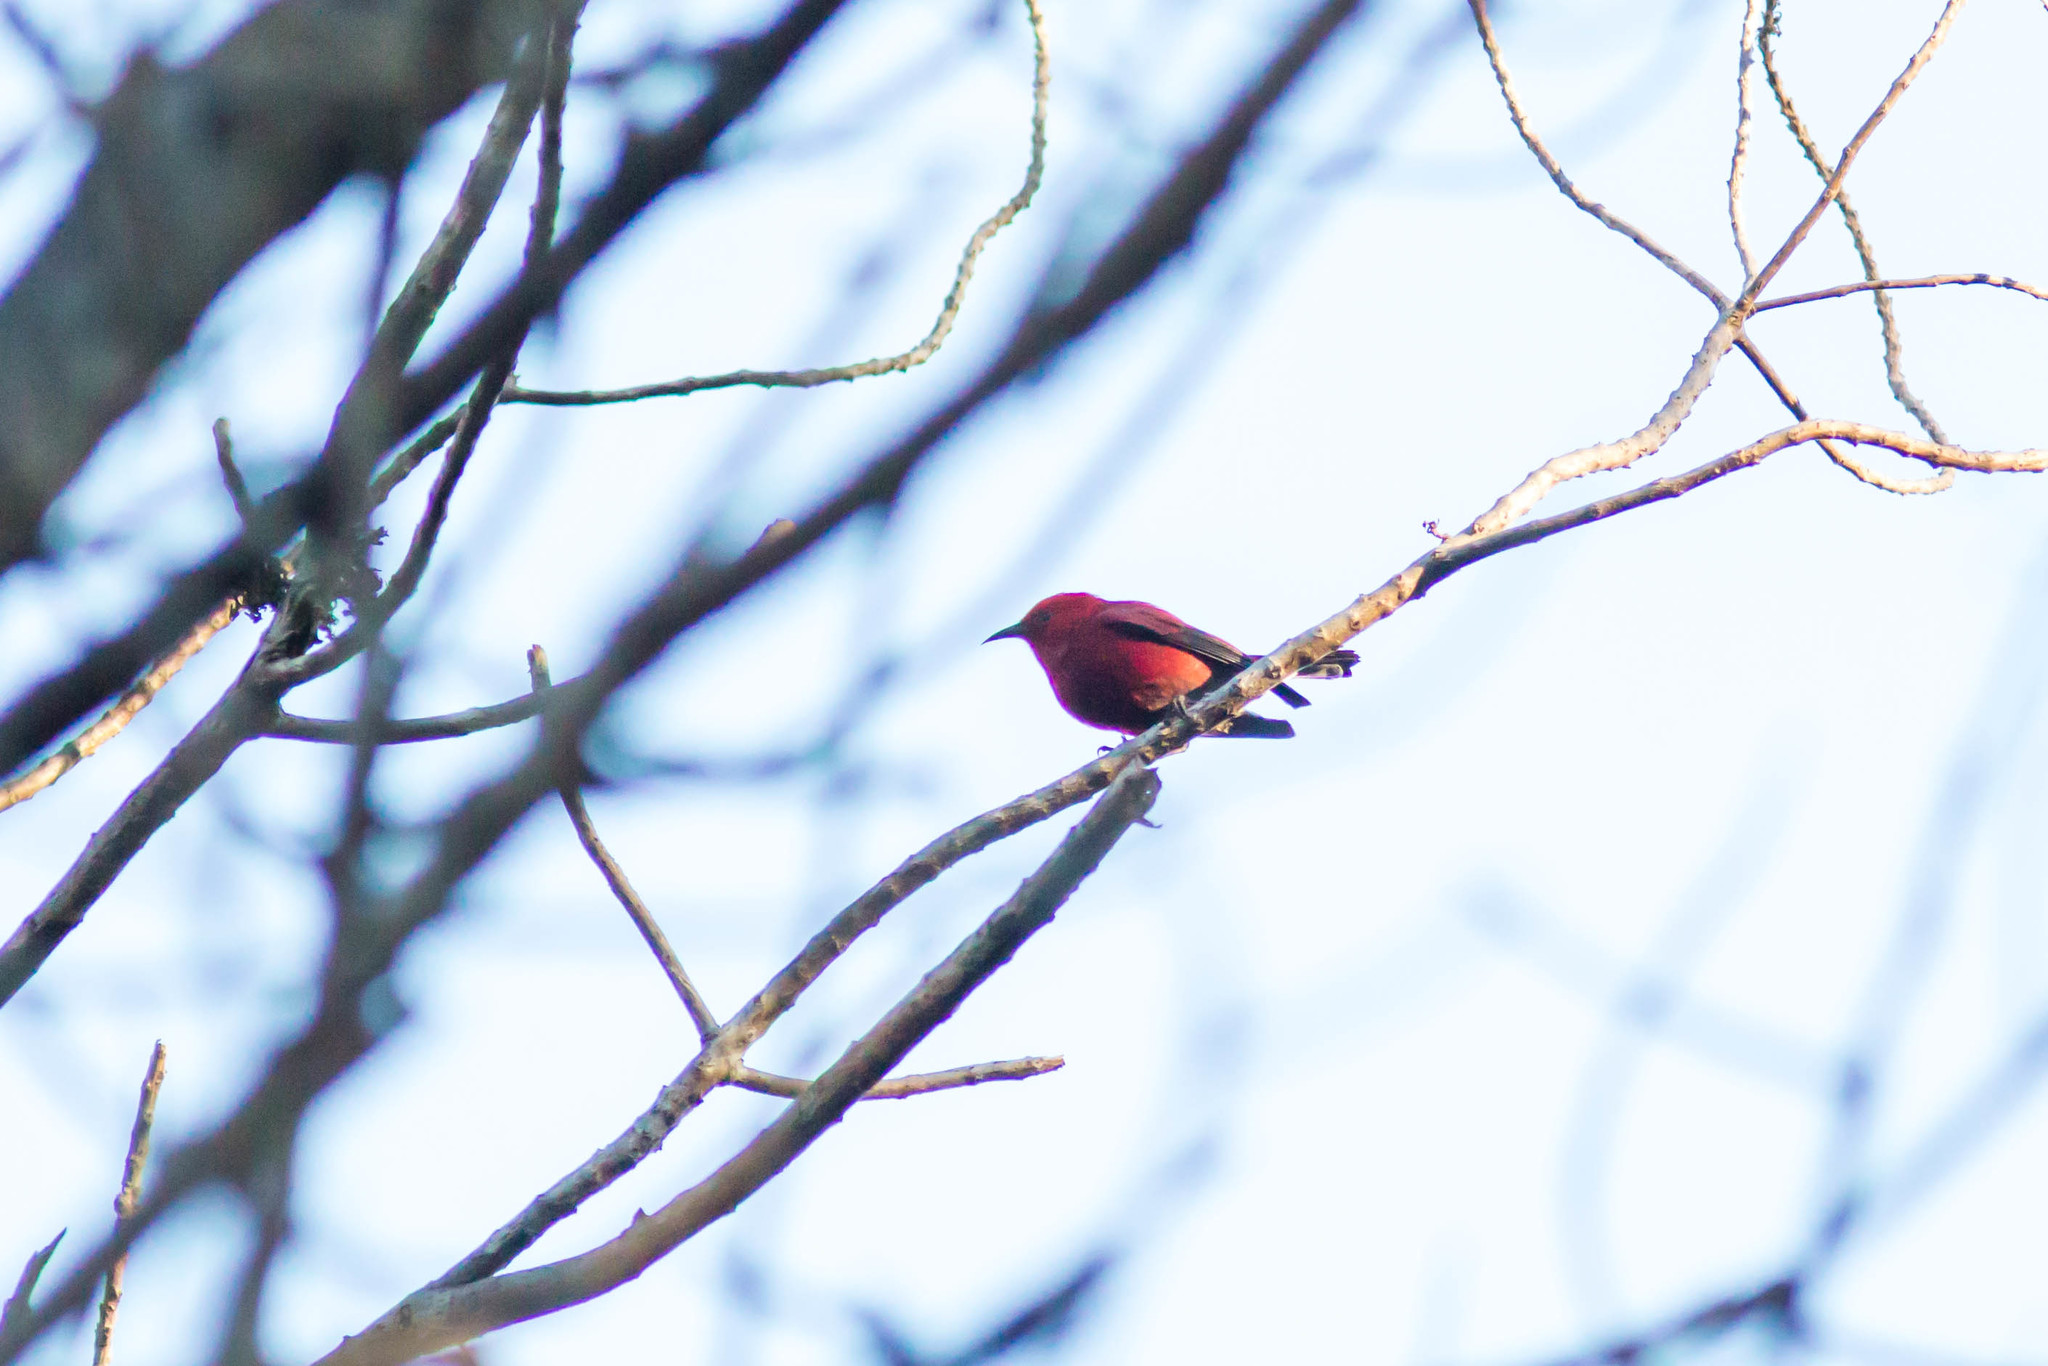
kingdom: Animalia
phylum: Chordata
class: Aves
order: Passeriformes
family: Fringillidae
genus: Himatione
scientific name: Himatione sanguinea
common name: Apapane
